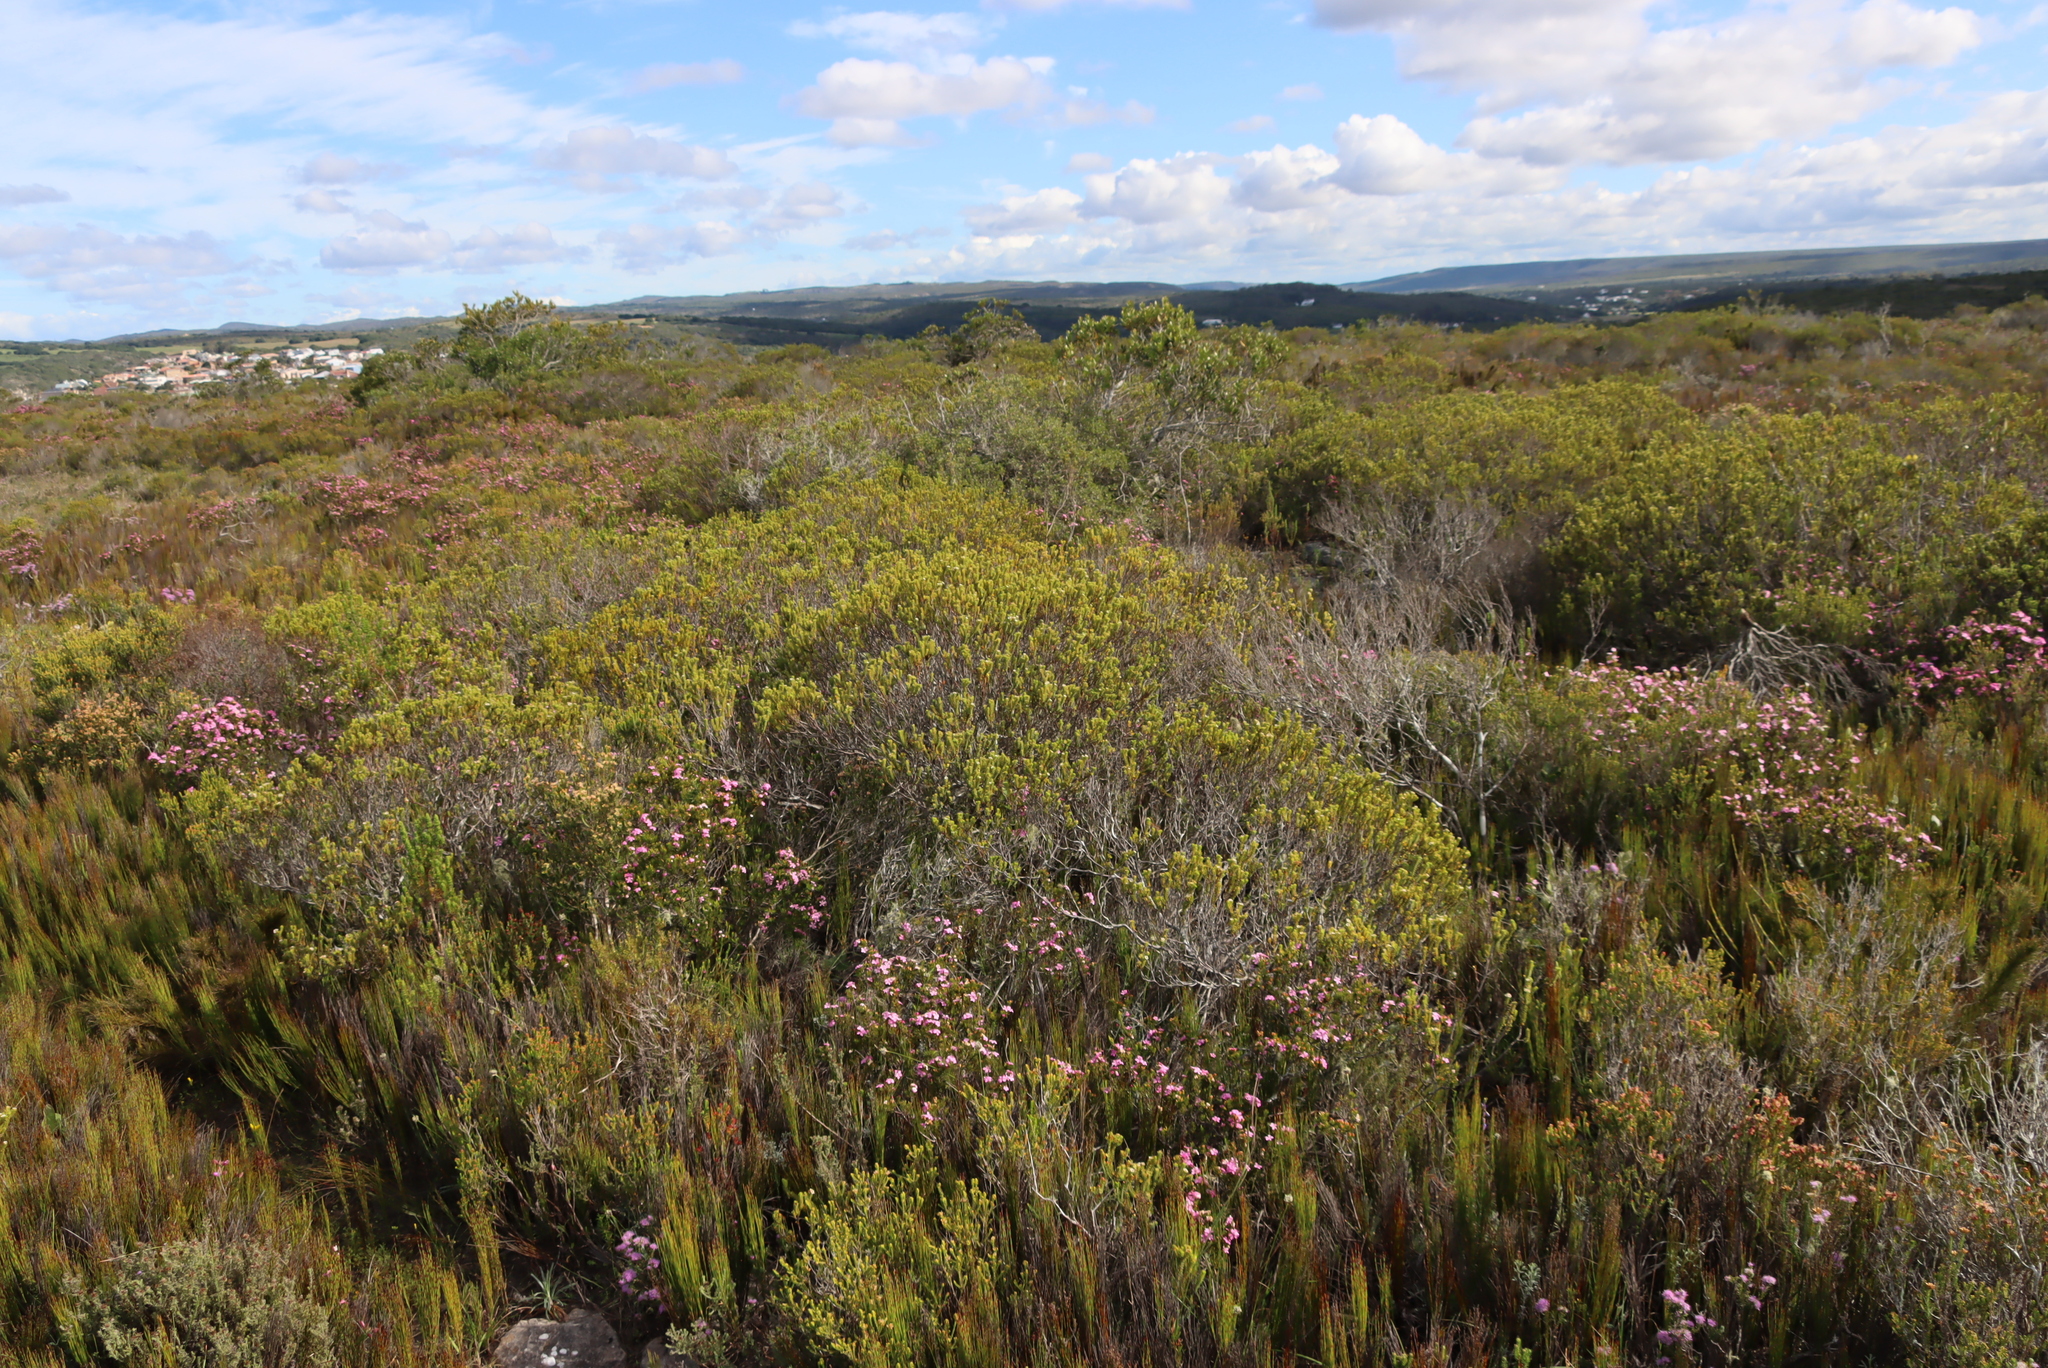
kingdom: Plantae
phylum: Tracheophyta
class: Magnoliopsida
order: Sapindales
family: Rutaceae
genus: Diosma
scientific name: Diosma echinulata
